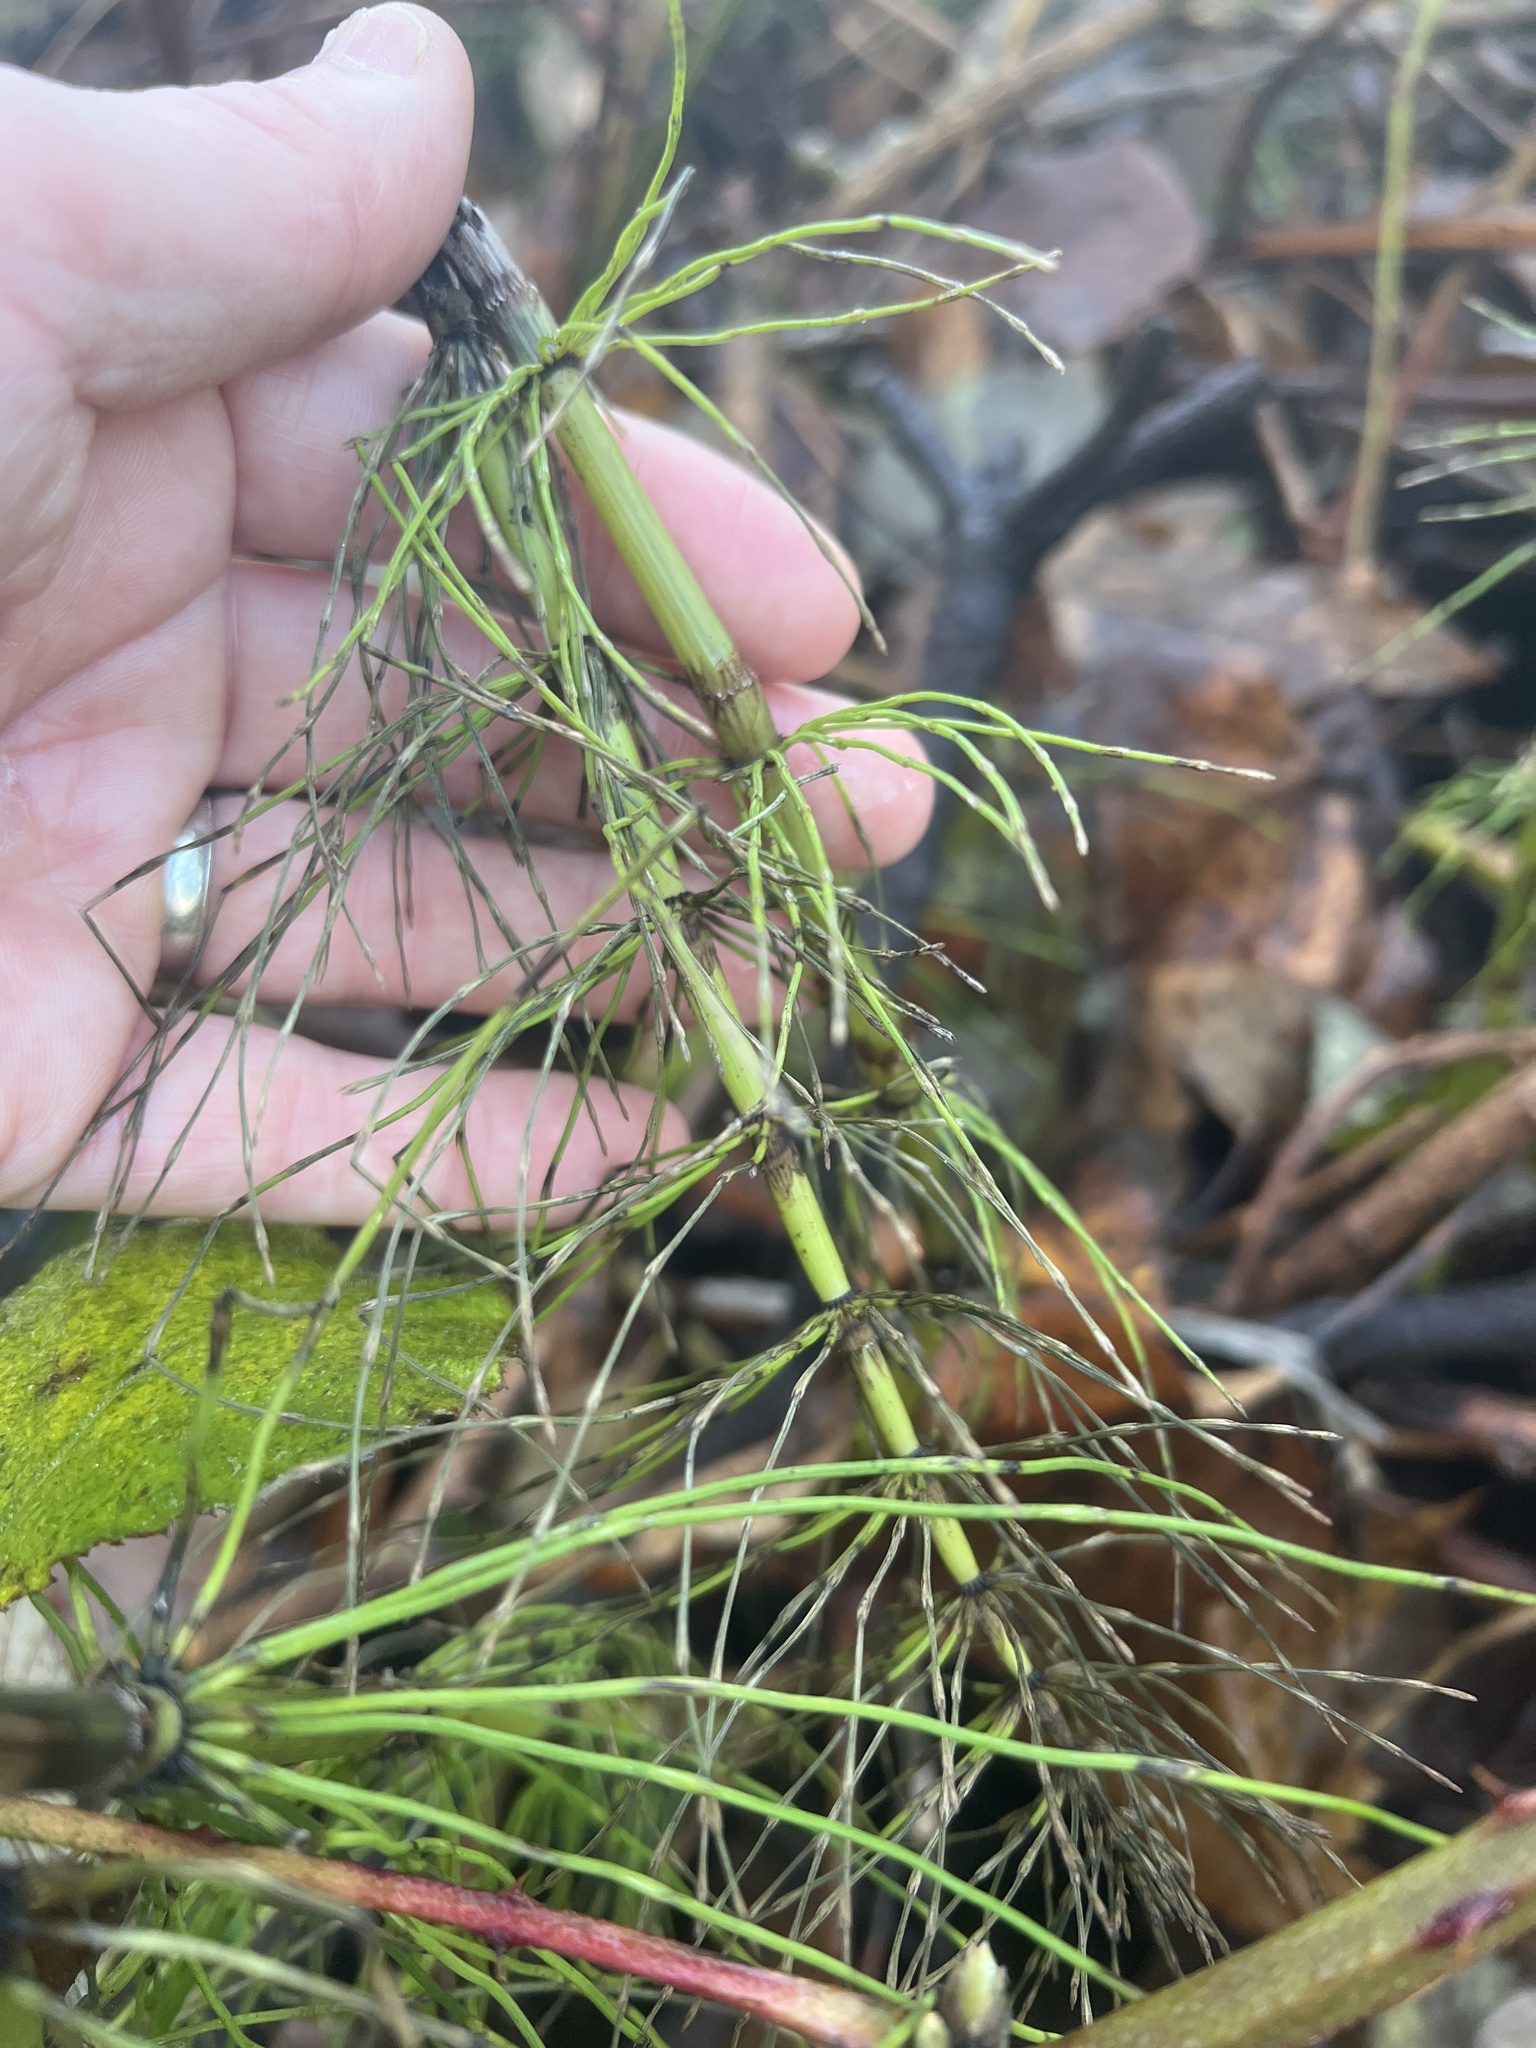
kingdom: Plantae
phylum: Tracheophyta
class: Polypodiopsida
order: Equisetales
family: Equisetaceae
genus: Equisetum
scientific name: Equisetum telmateia
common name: Great horsetail
